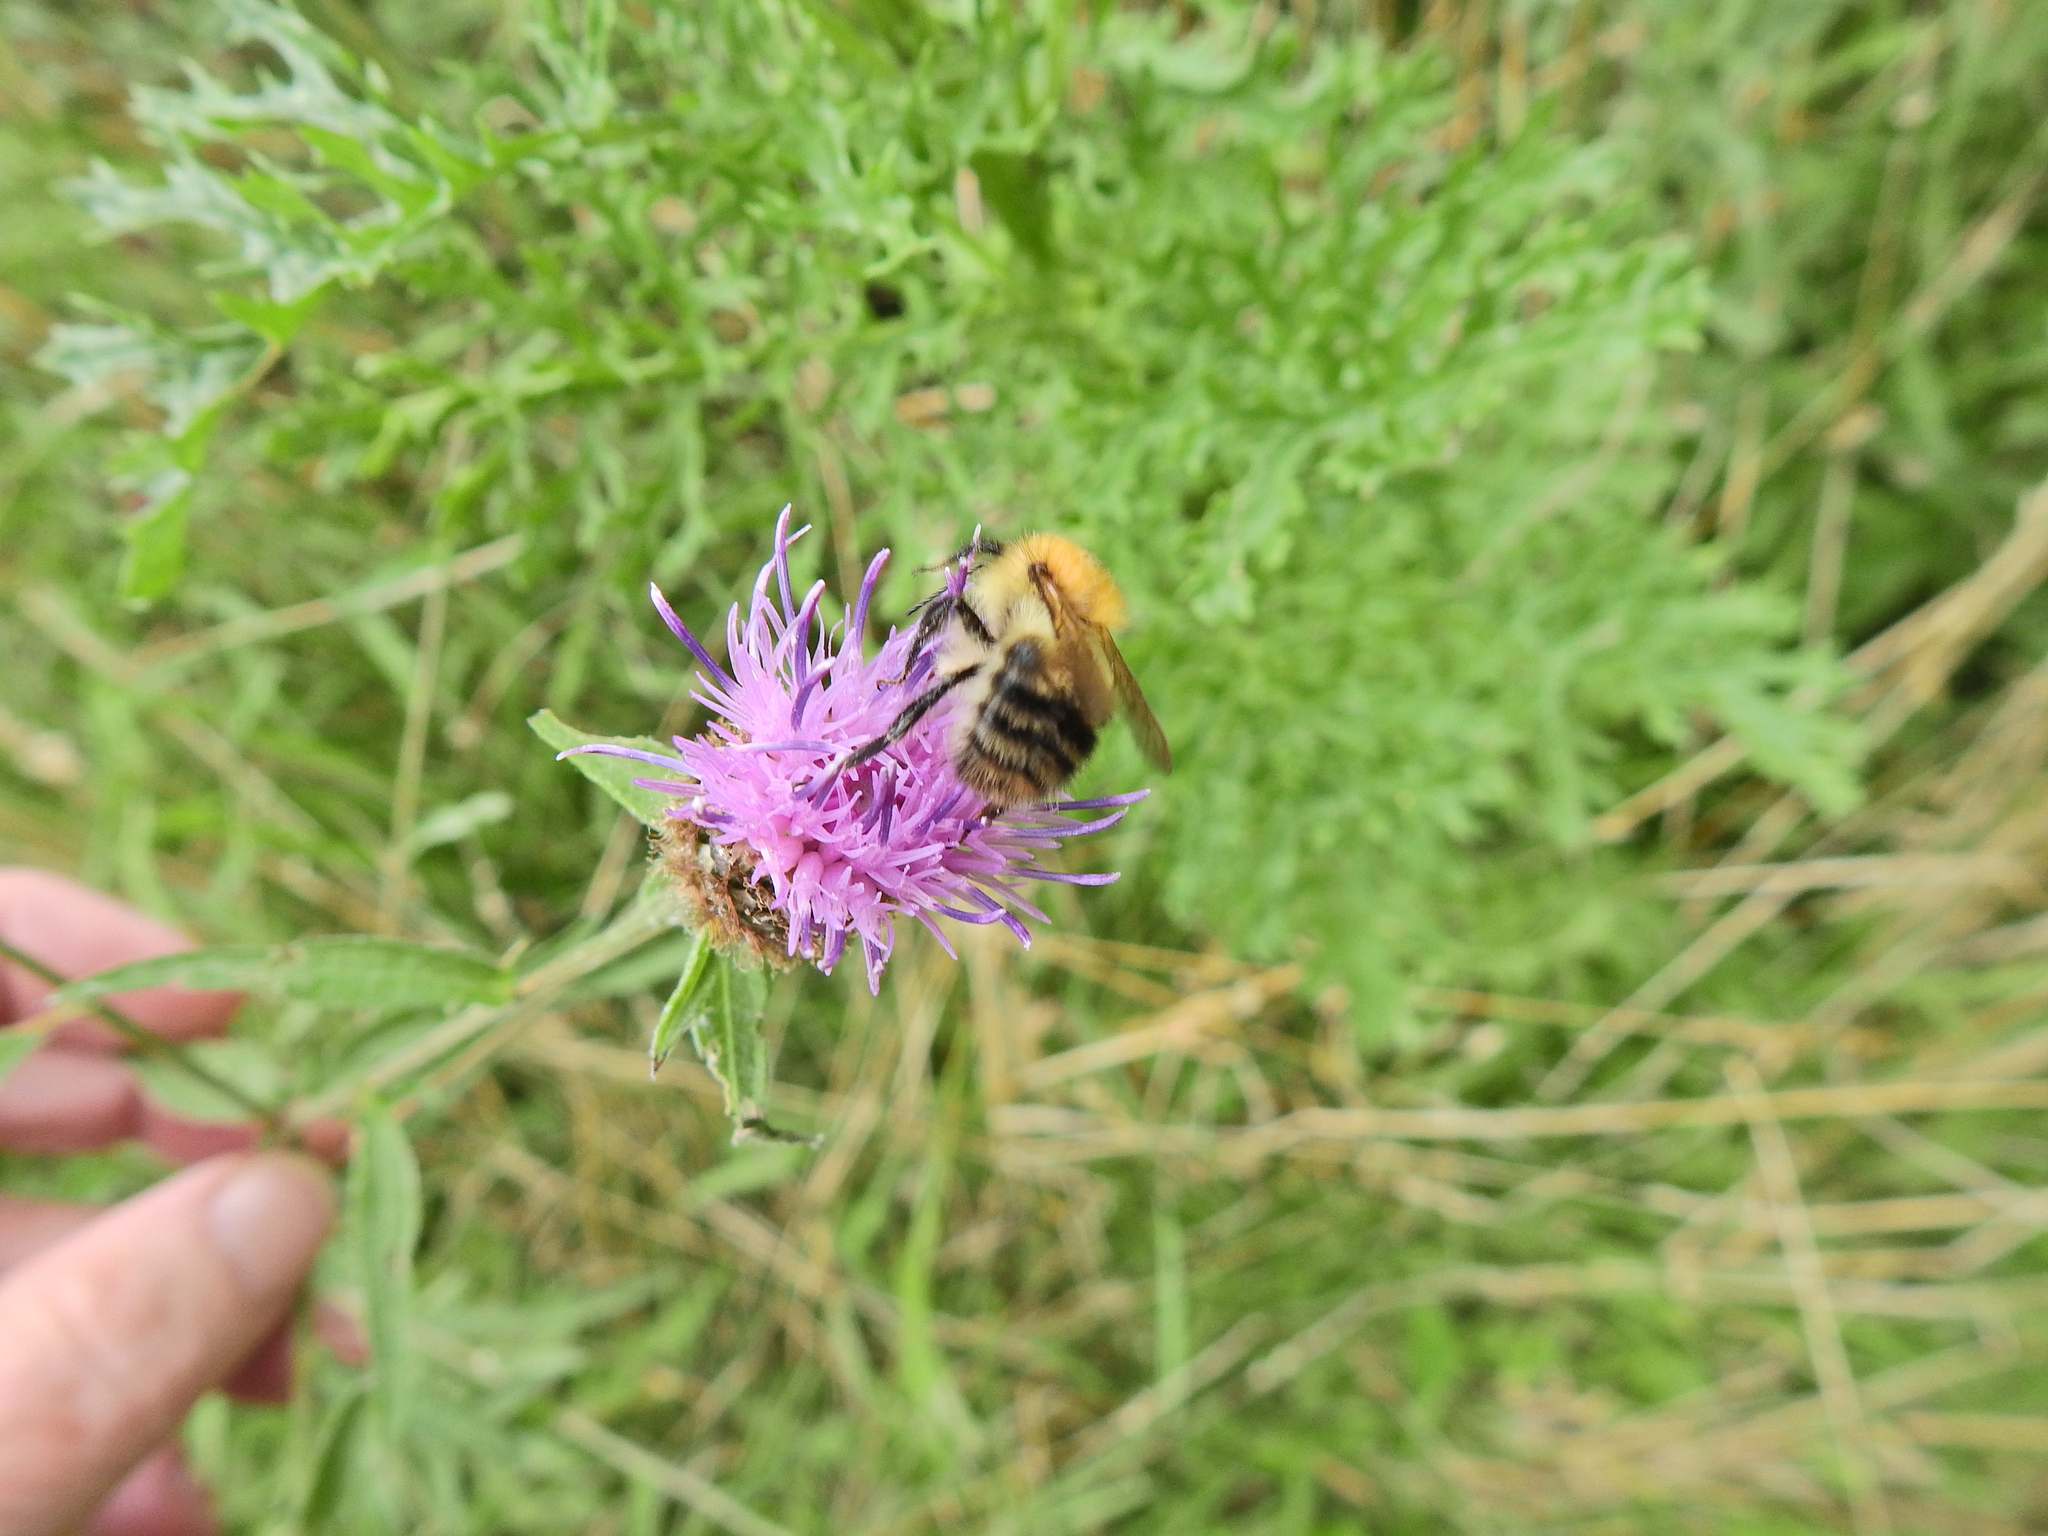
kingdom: Animalia
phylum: Arthropoda
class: Insecta
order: Hymenoptera
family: Apidae
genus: Bombus
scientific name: Bombus pascuorum
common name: Common carder bee
